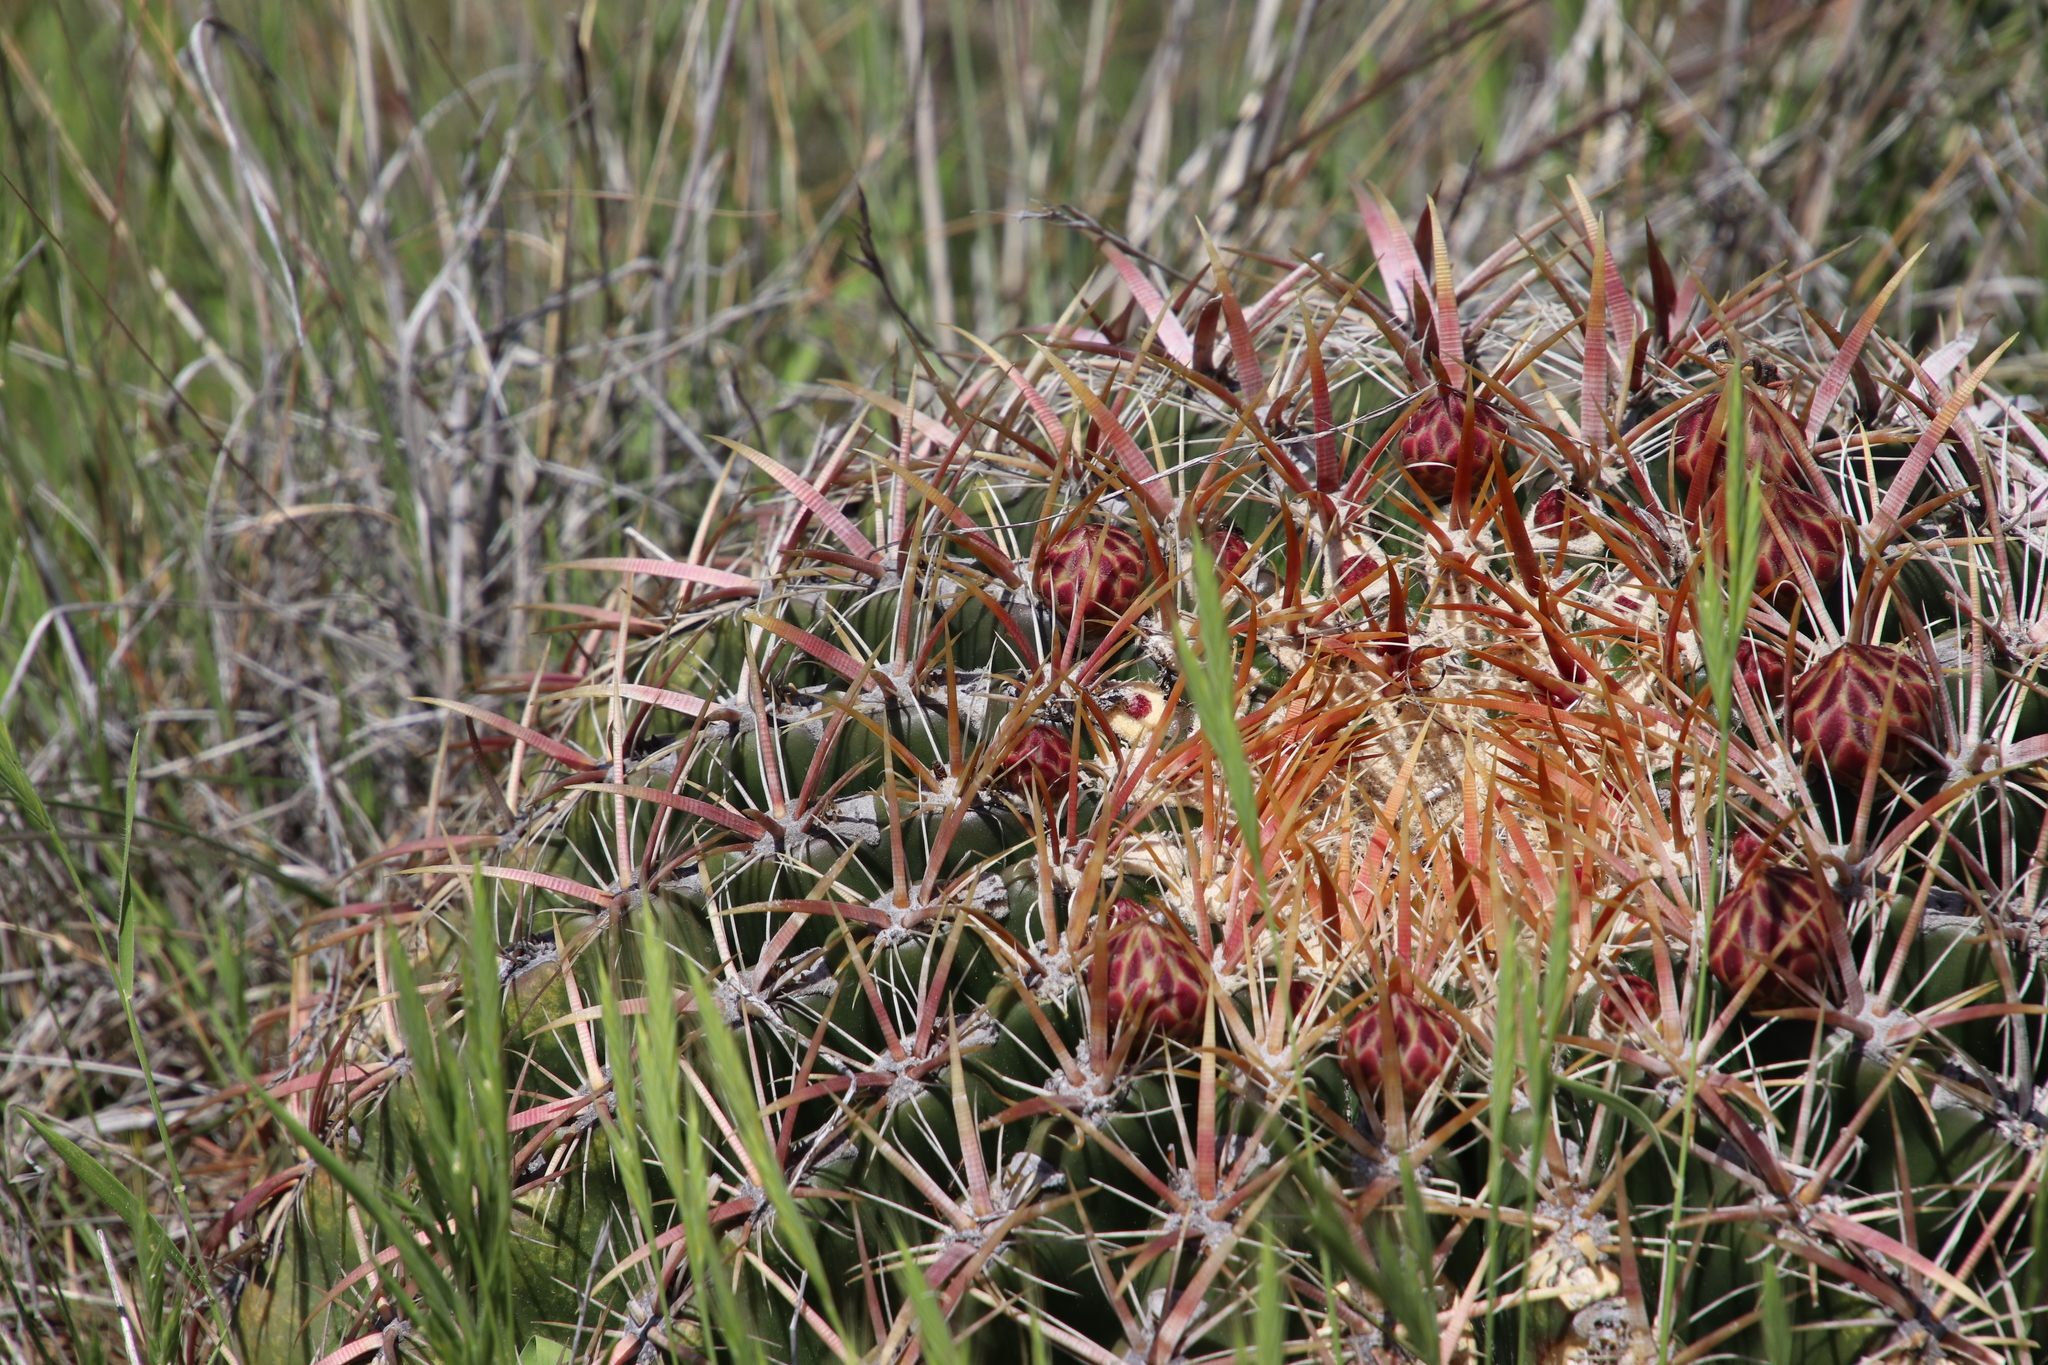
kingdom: Plantae
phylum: Tracheophyta
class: Magnoliopsida
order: Caryophyllales
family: Cactaceae
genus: Ferocactus
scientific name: Ferocactus viridescens
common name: San diego barrel cactus
